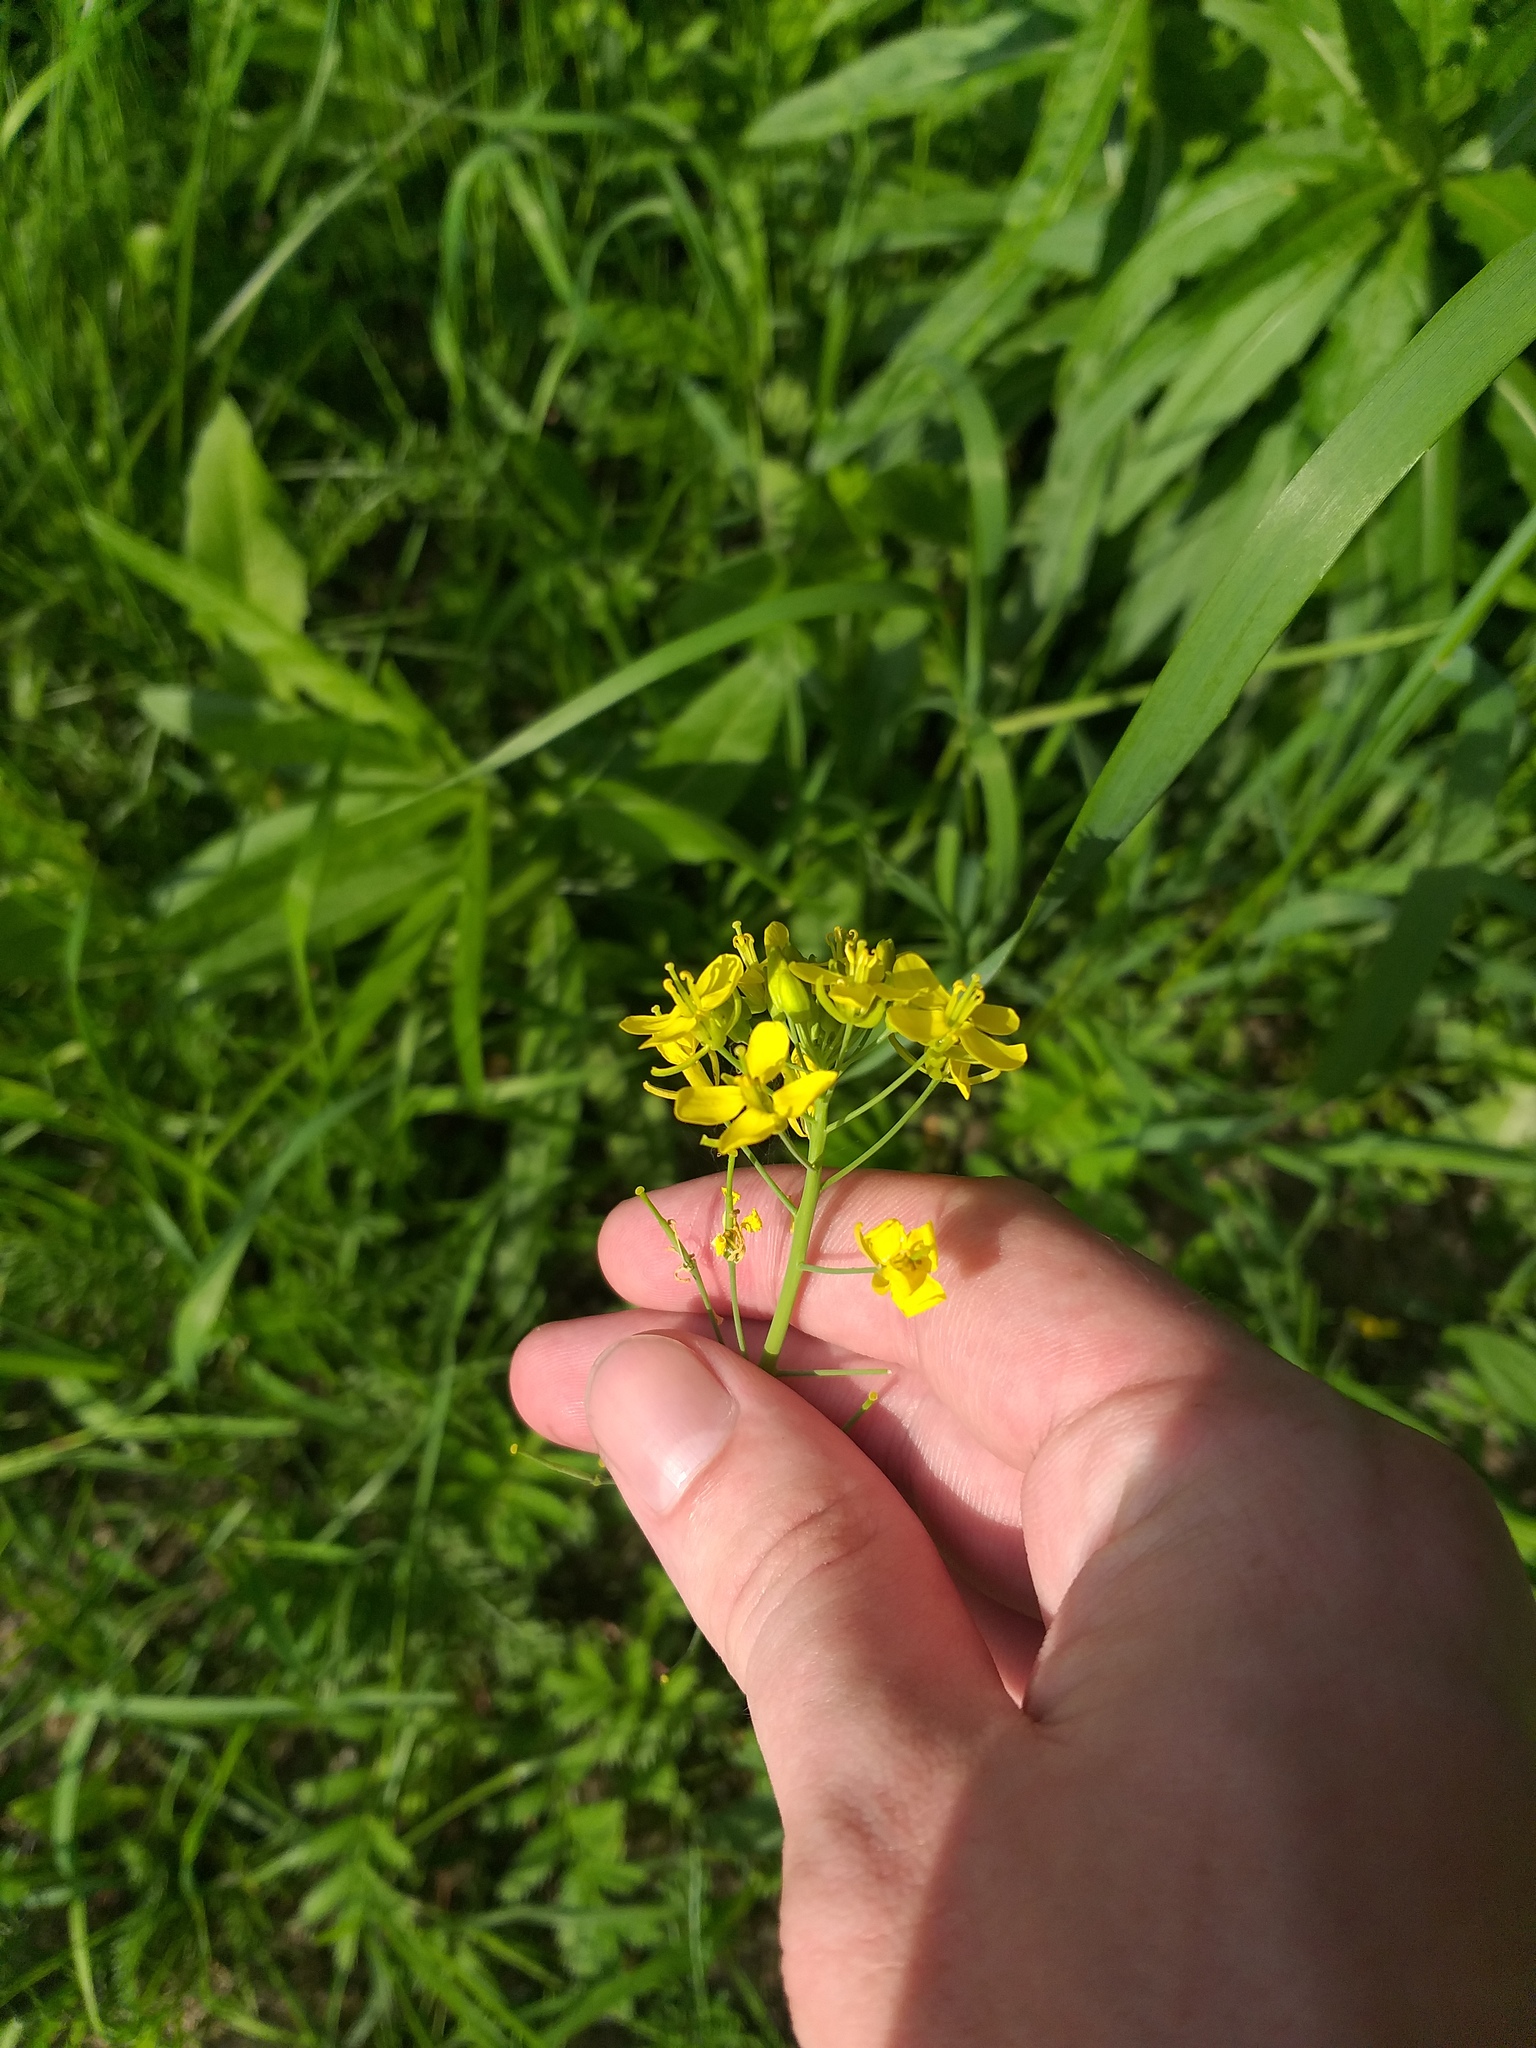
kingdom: Plantae
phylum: Tracheophyta
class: Magnoliopsida
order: Brassicales
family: Brassicaceae
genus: Brassica
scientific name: Brassica rapa
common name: Field mustard
